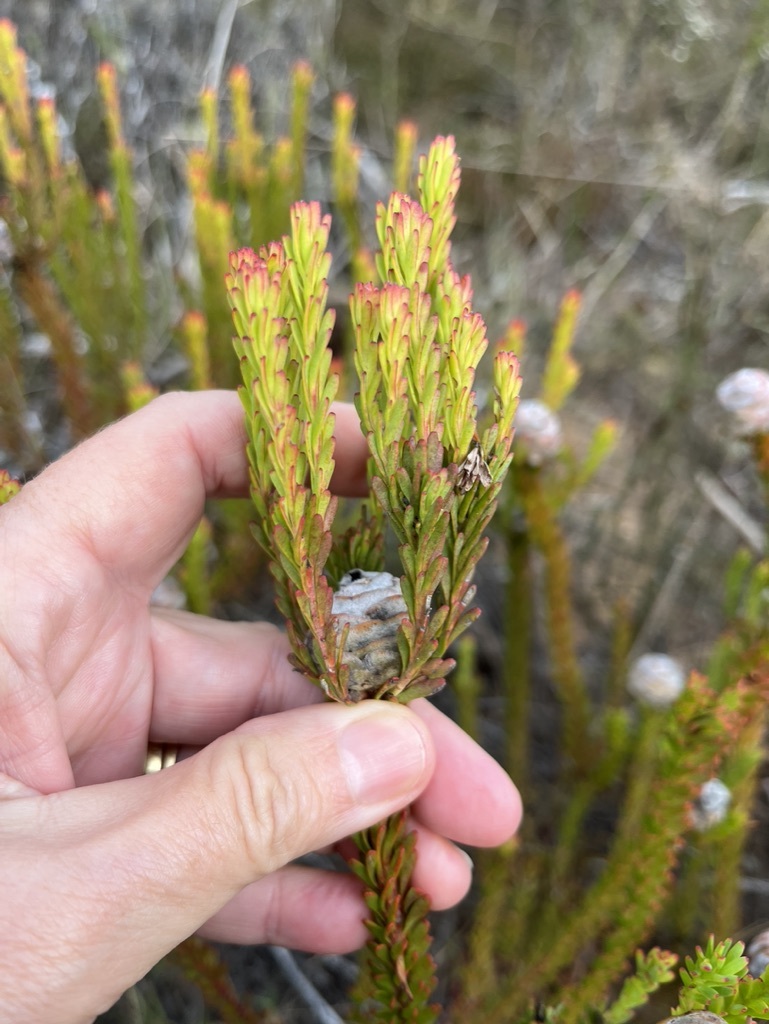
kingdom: Plantae
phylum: Tracheophyta
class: Magnoliopsida
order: Proteales
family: Proteaceae
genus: Leucadendron
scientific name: Leucadendron linifolium
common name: Line-leaf conebush
